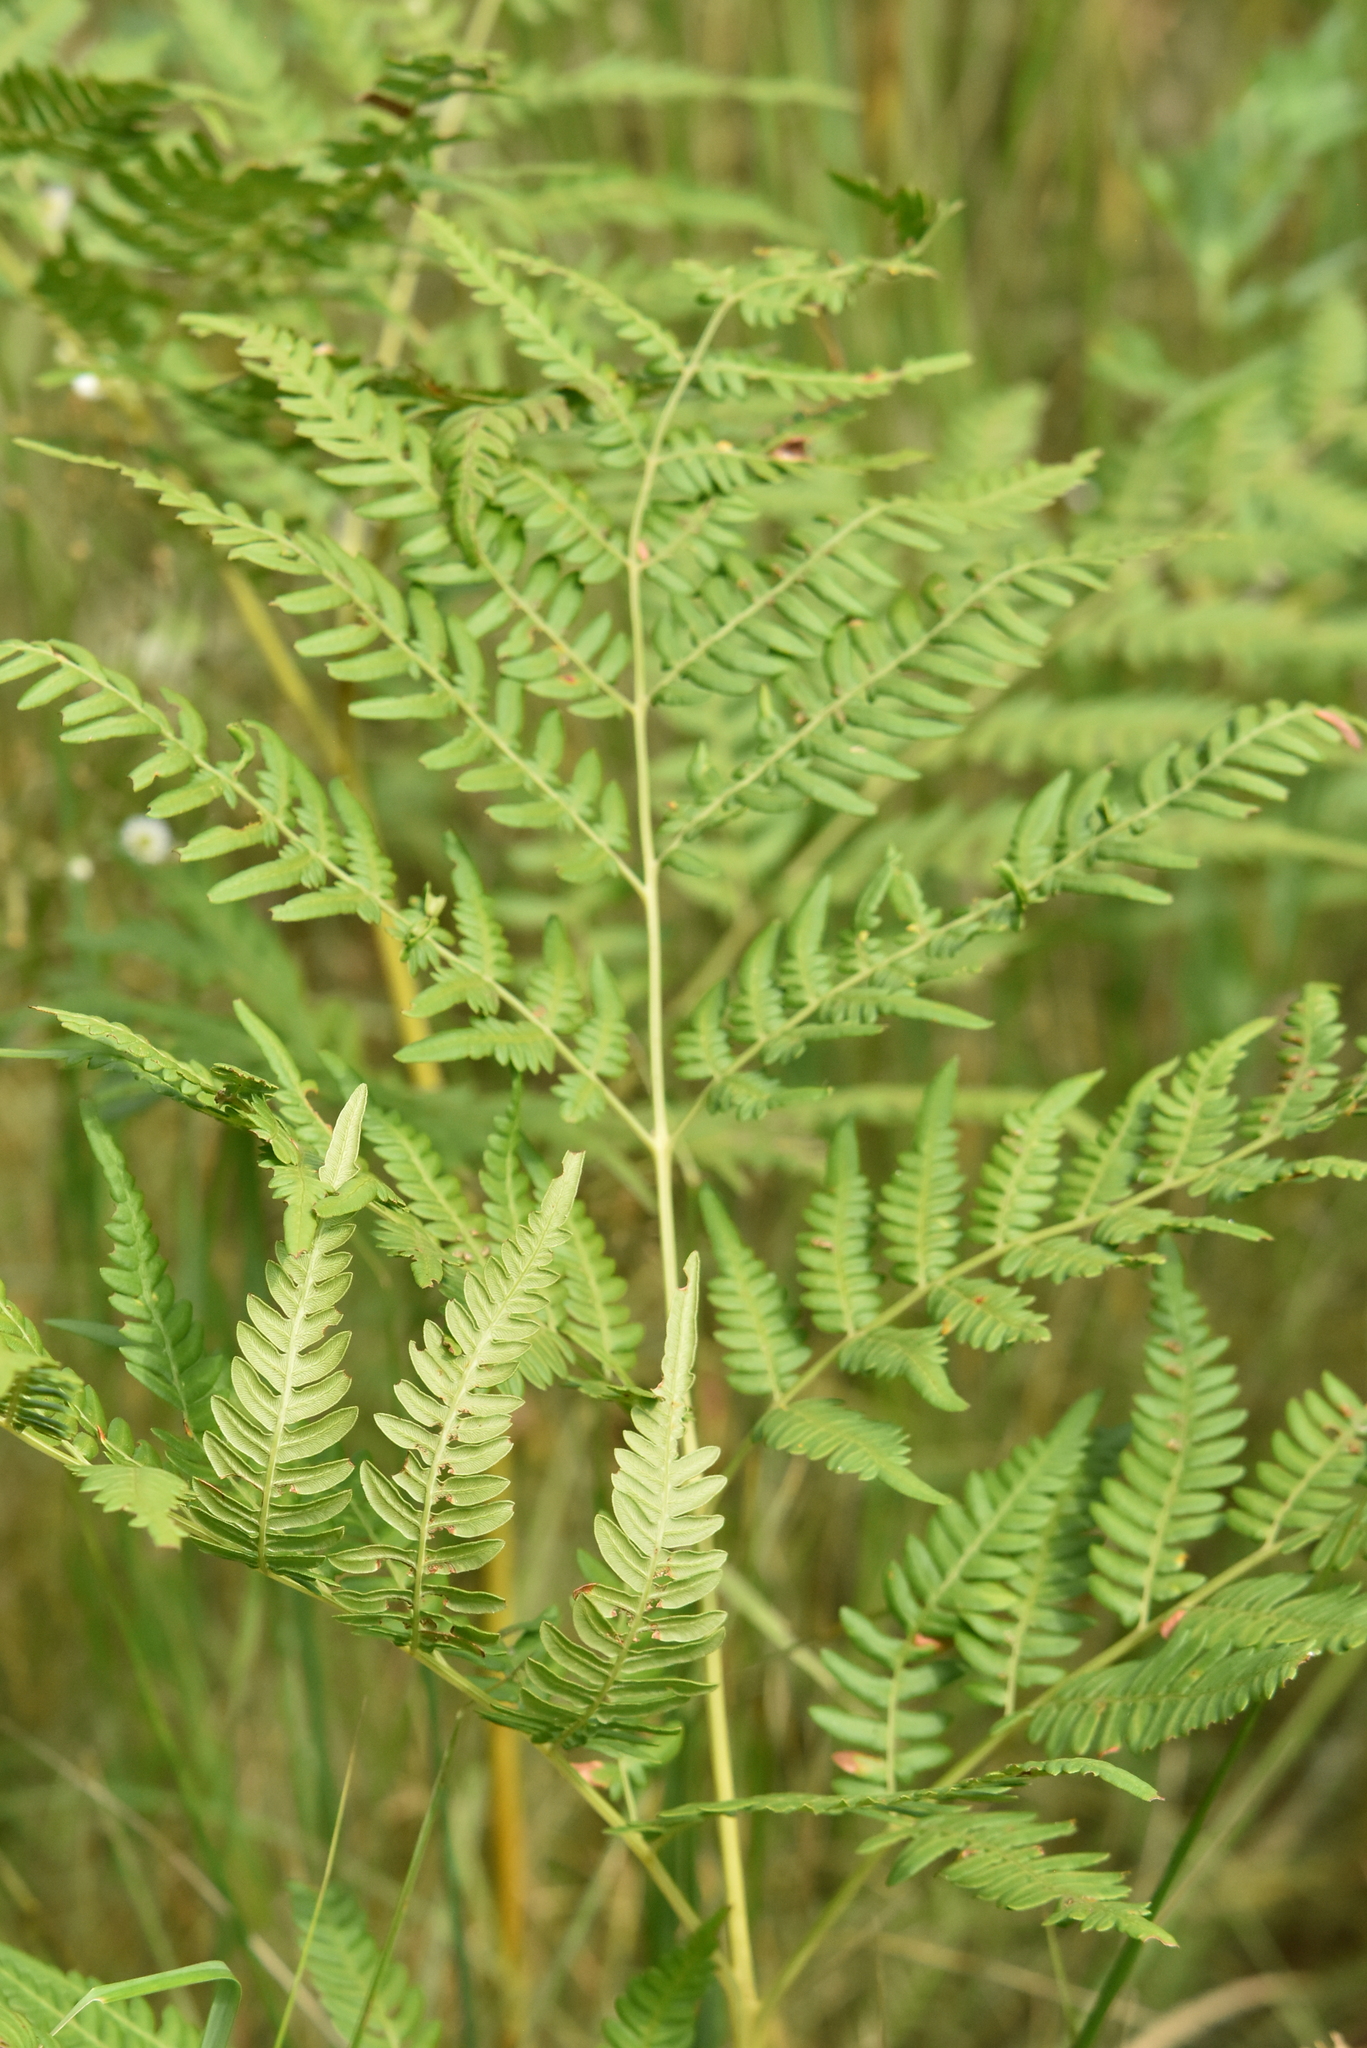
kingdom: Plantae
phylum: Tracheophyta
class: Polypodiopsida
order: Polypodiales
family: Dennstaedtiaceae
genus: Pteridium
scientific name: Pteridium aquilinum
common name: Bracken
